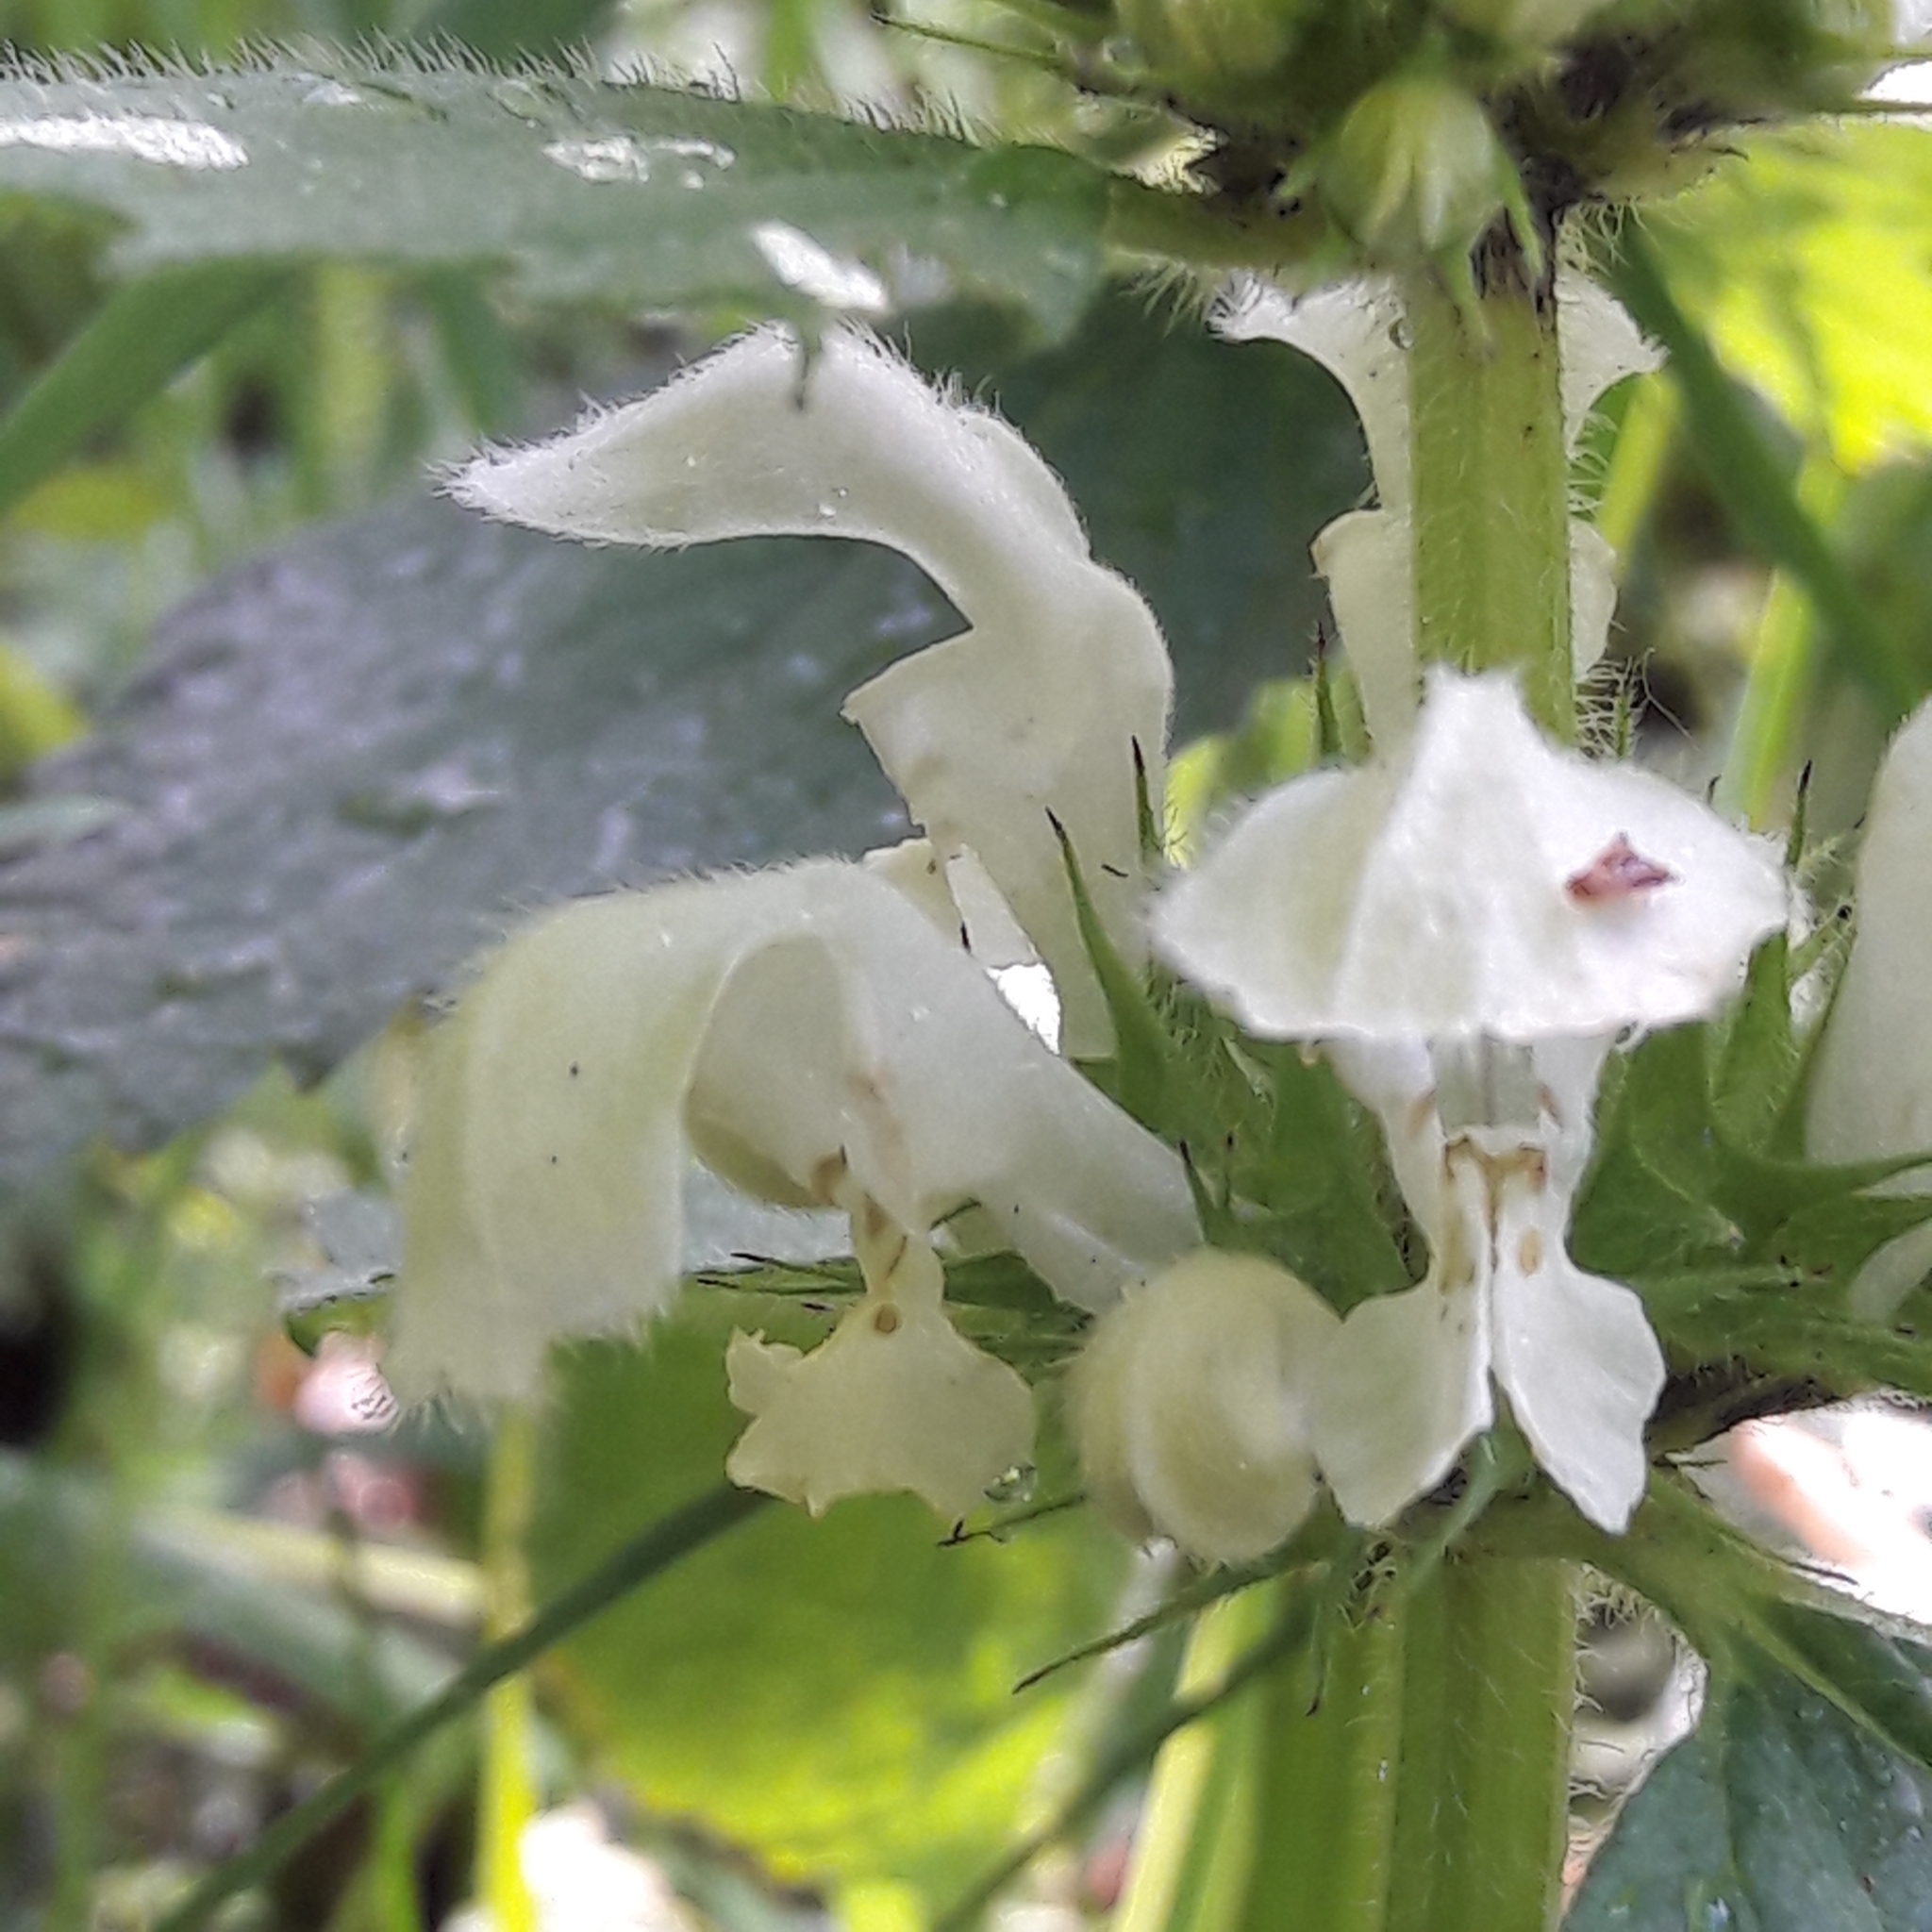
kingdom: Plantae
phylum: Tracheophyta
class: Magnoliopsida
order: Lamiales
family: Lamiaceae
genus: Lamium
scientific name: Lamium album
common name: White dead-nettle
